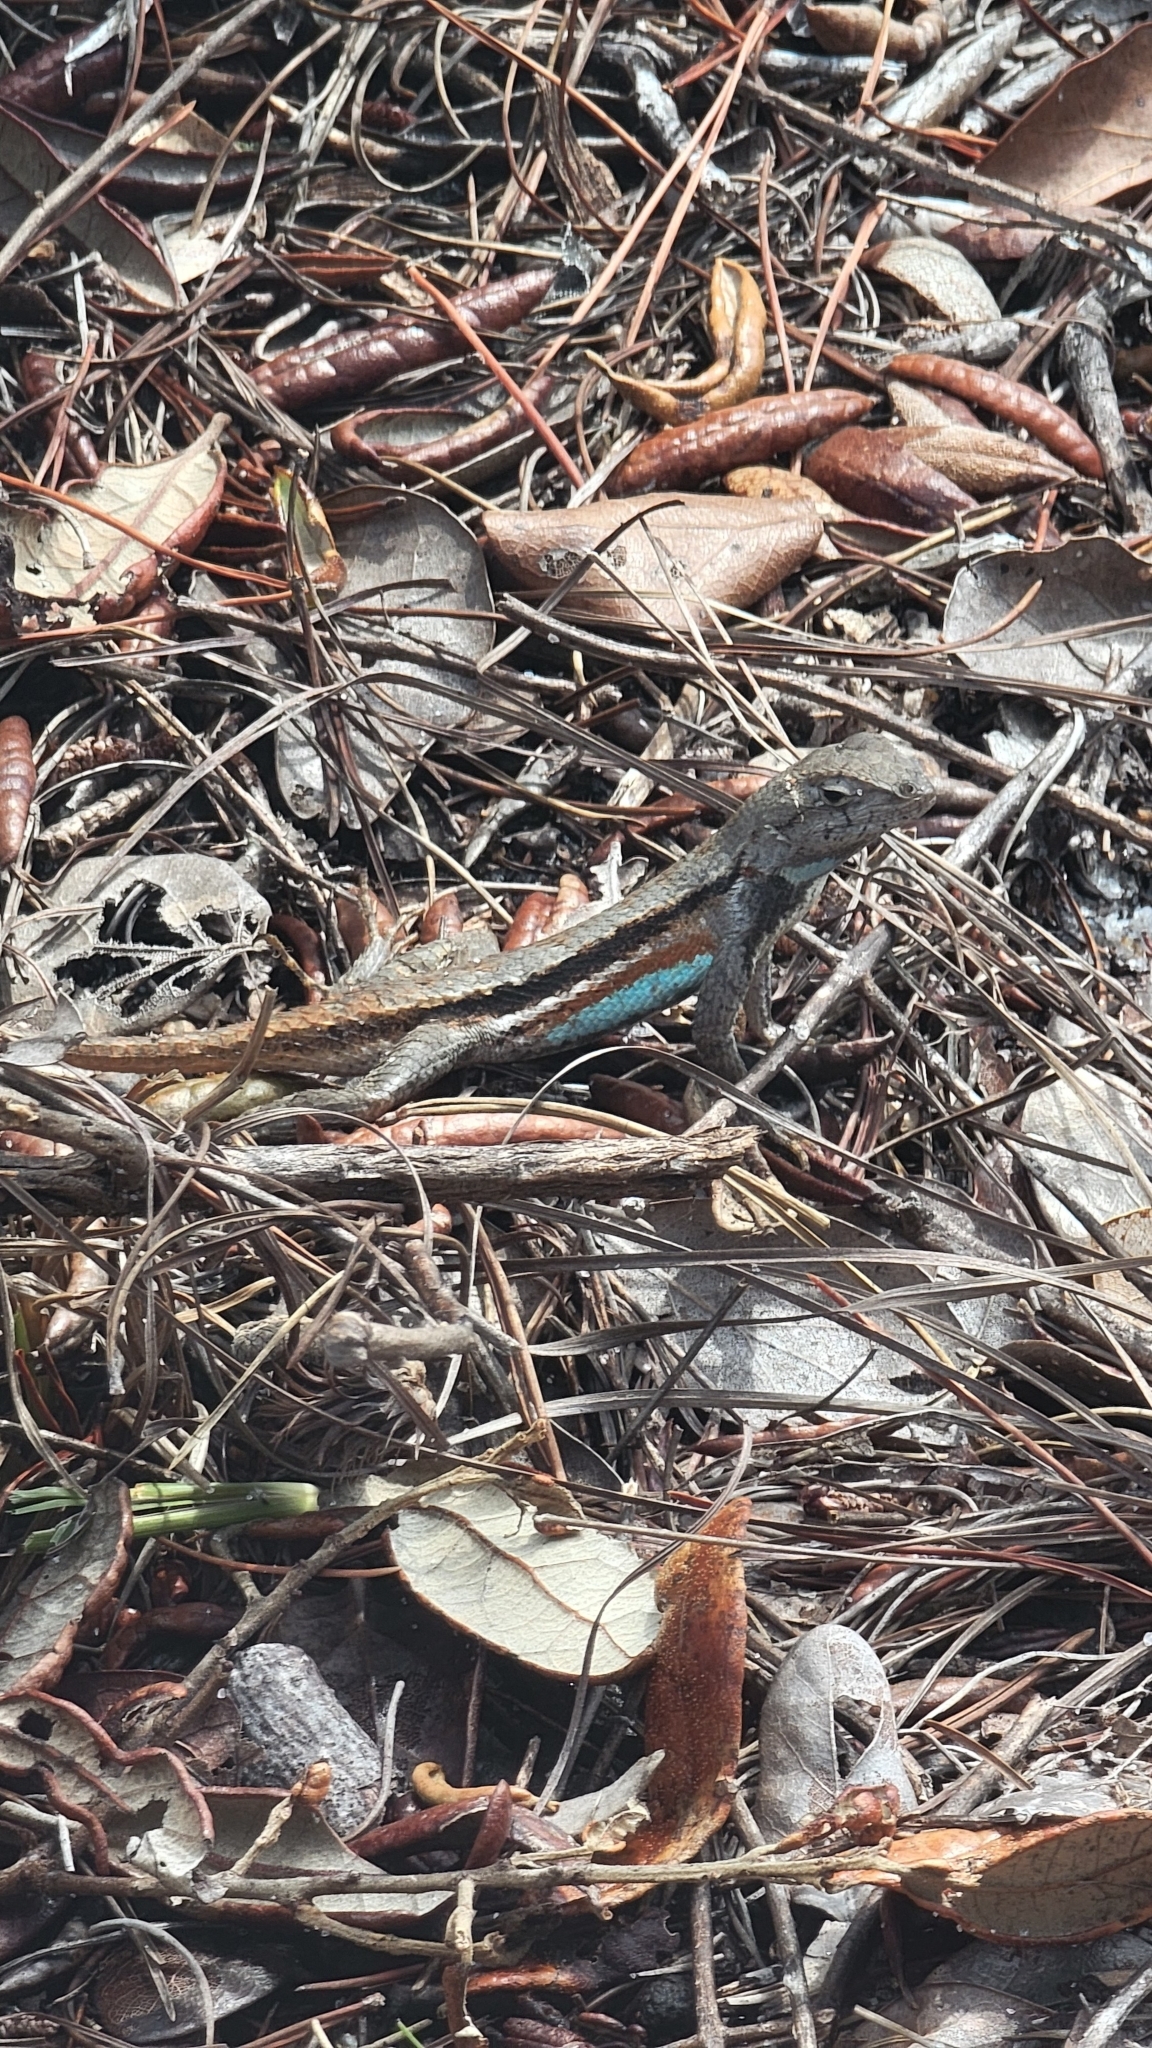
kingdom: Animalia
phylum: Chordata
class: Squamata
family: Phrynosomatidae
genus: Sceloporus
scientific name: Sceloporus woodi
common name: Florida scrub lizard
